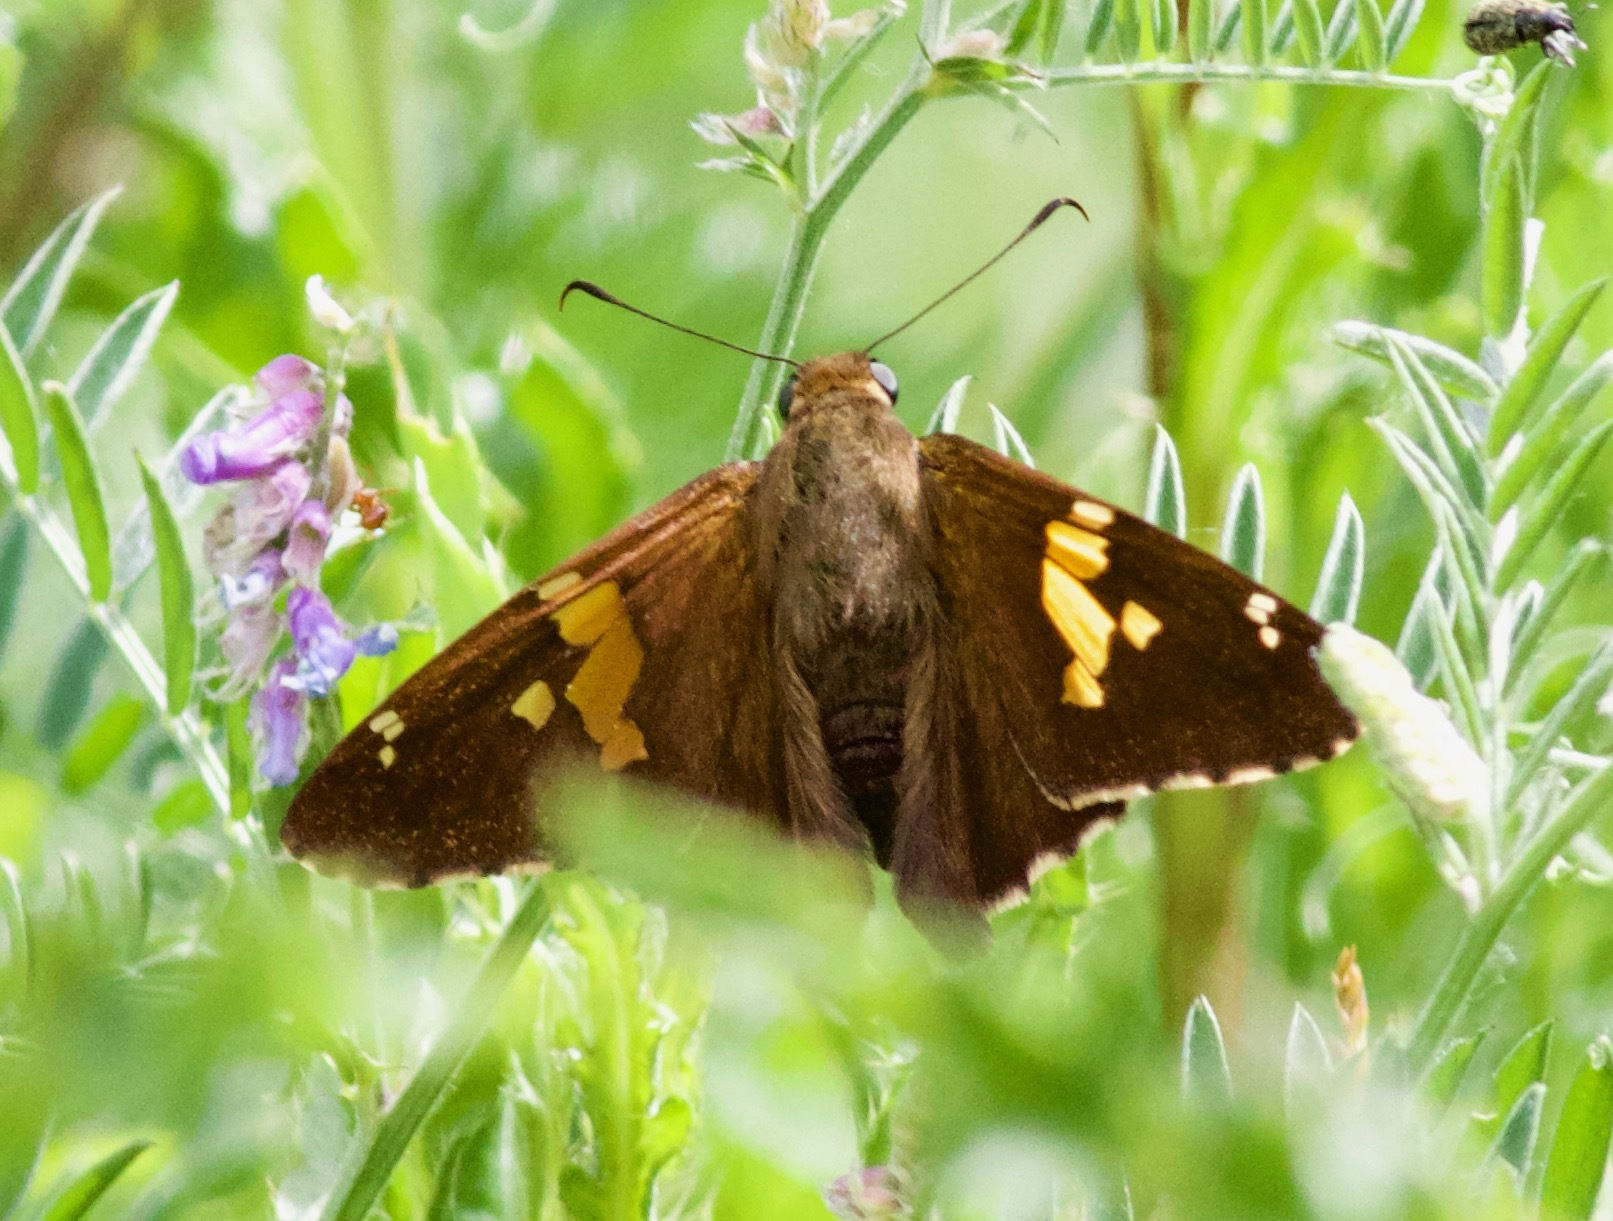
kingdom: Animalia
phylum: Arthropoda
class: Insecta
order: Lepidoptera
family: Hesperiidae
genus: Epargyreus
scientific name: Epargyreus clarus
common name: Silver-spotted skipper
